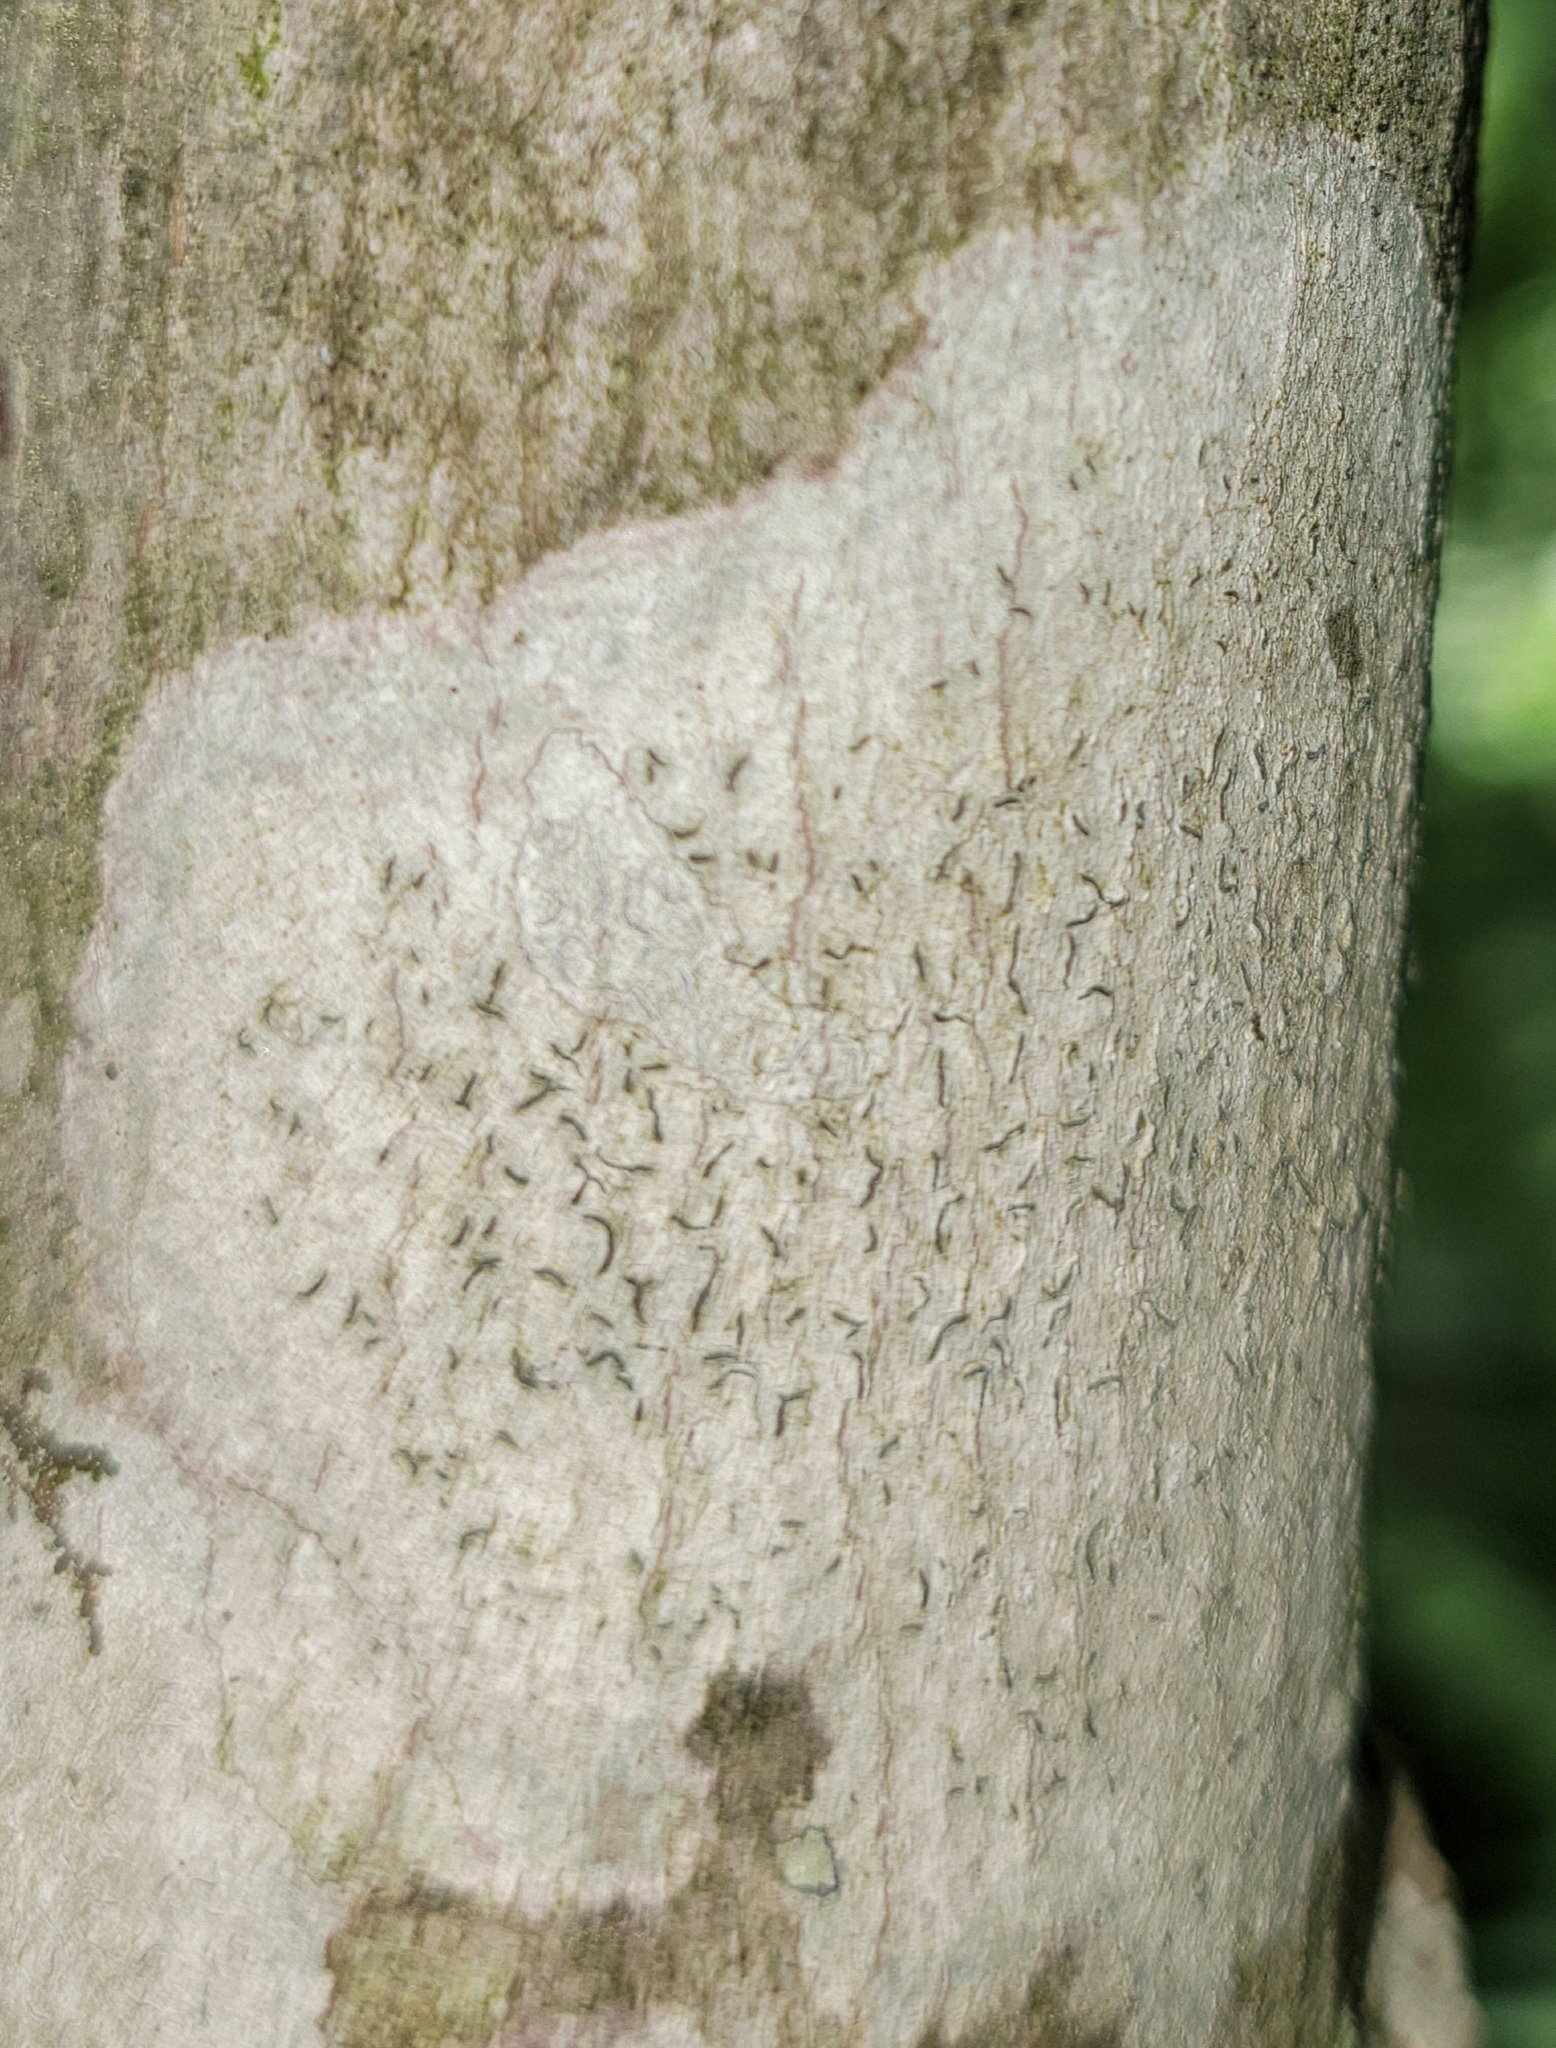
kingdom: Fungi
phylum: Ascomycota
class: Lecanoromycetes
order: Ostropales
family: Graphidaceae
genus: Graphis
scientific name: Graphis scripta
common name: Script lichen
